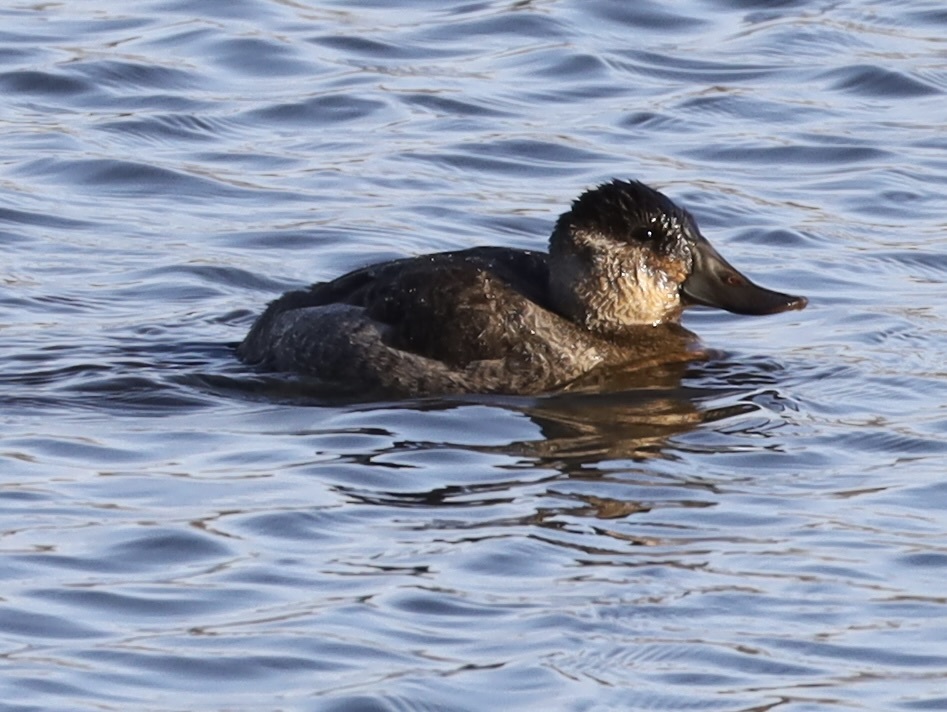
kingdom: Animalia
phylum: Chordata
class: Aves
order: Anseriformes
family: Anatidae
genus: Oxyura
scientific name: Oxyura jamaicensis
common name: Ruddy duck
